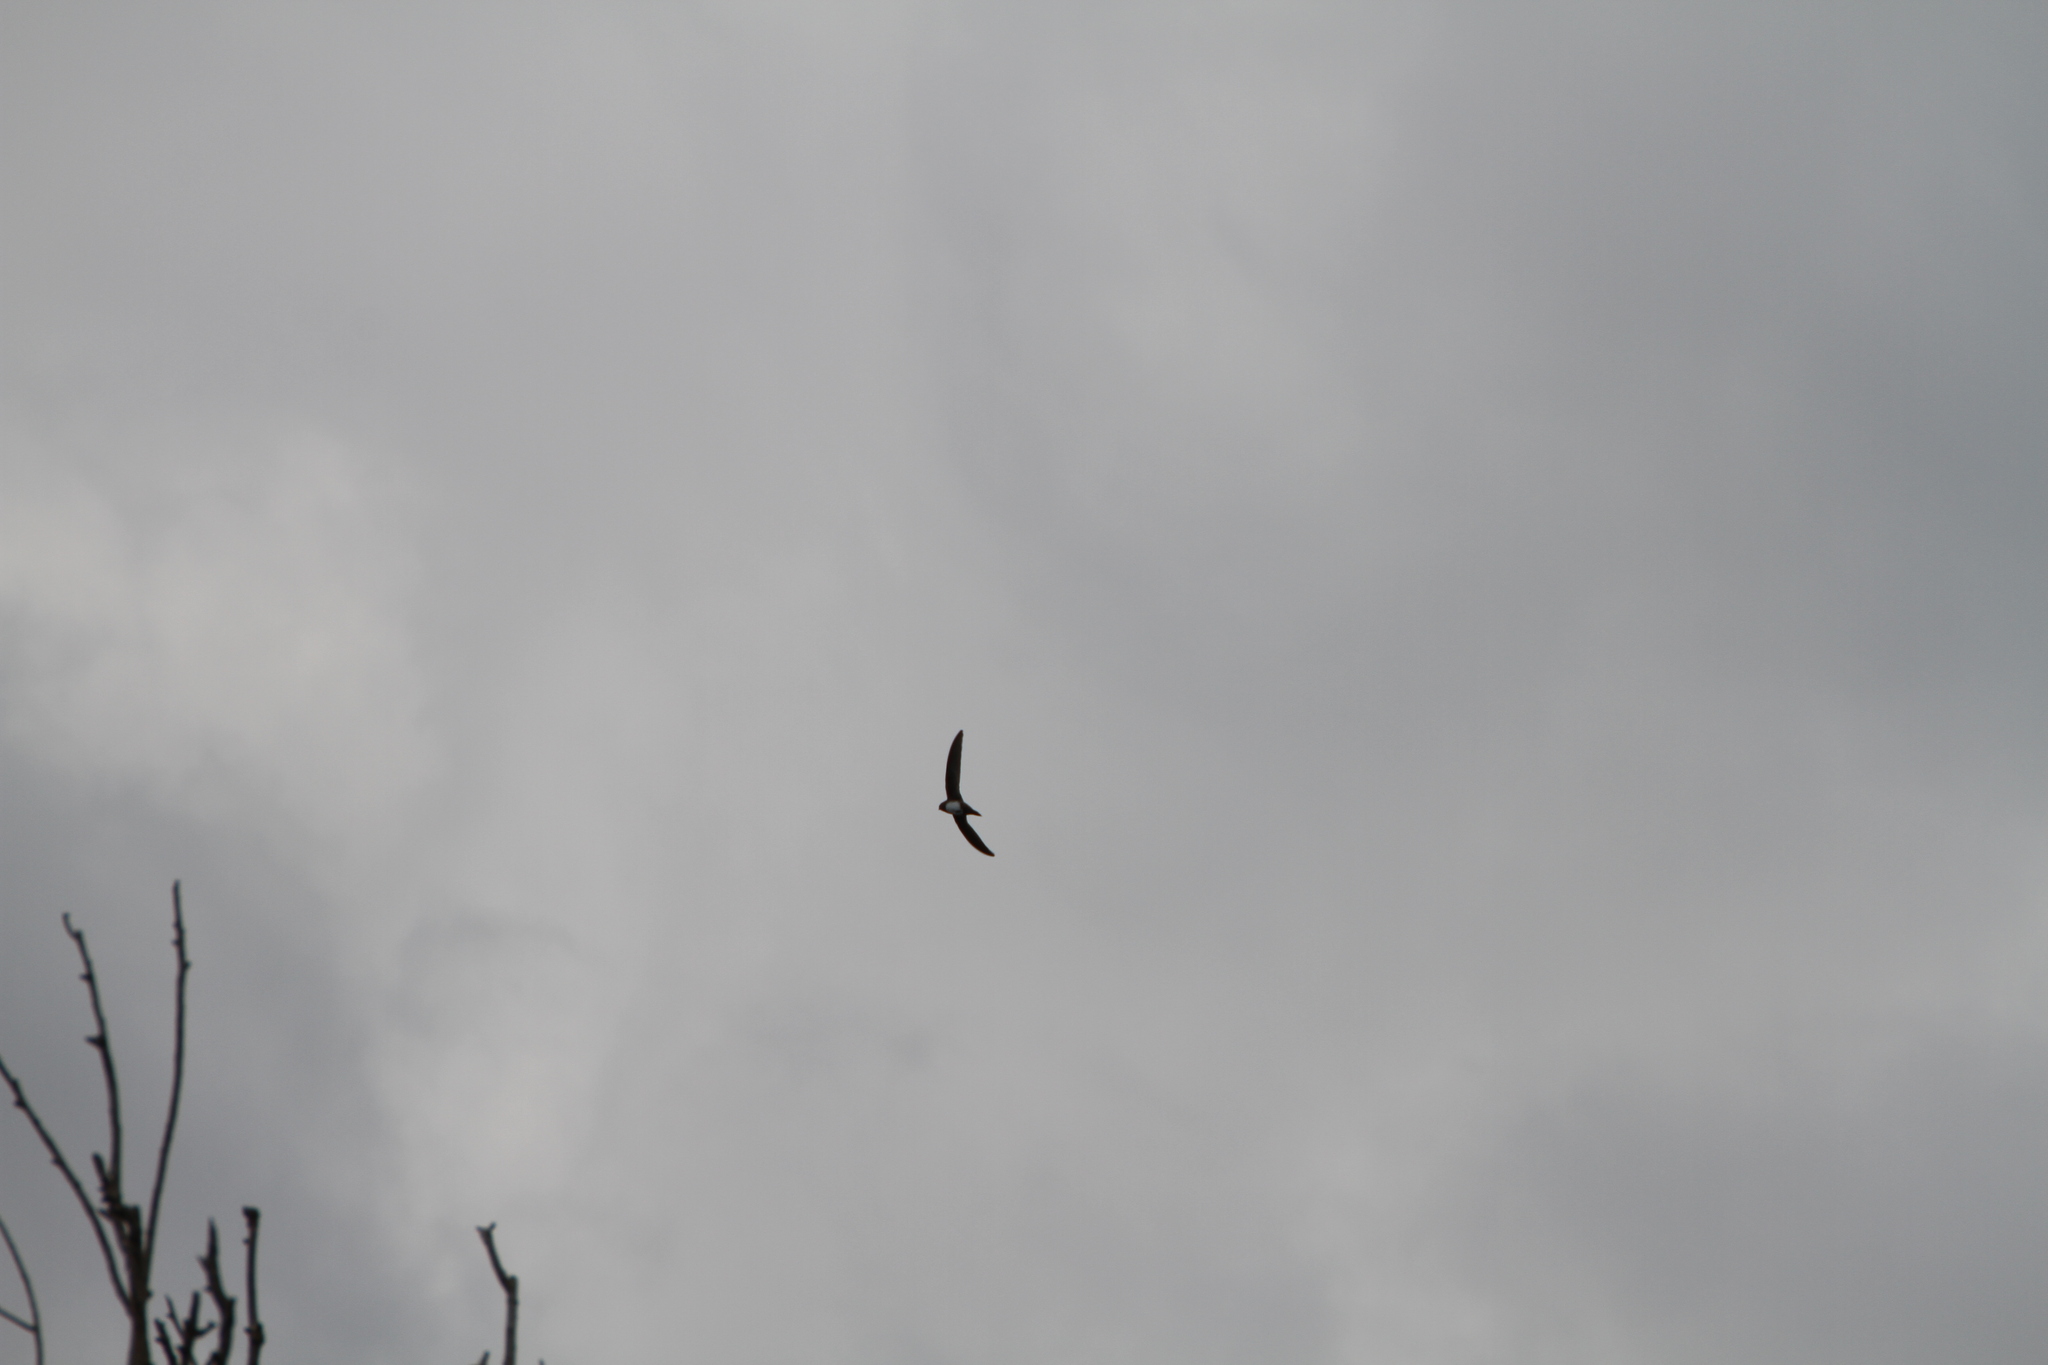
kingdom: Animalia
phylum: Chordata
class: Aves
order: Apodiformes
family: Apodidae
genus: Tachymarptis
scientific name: Tachymarptis melba
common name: Alpine swift
